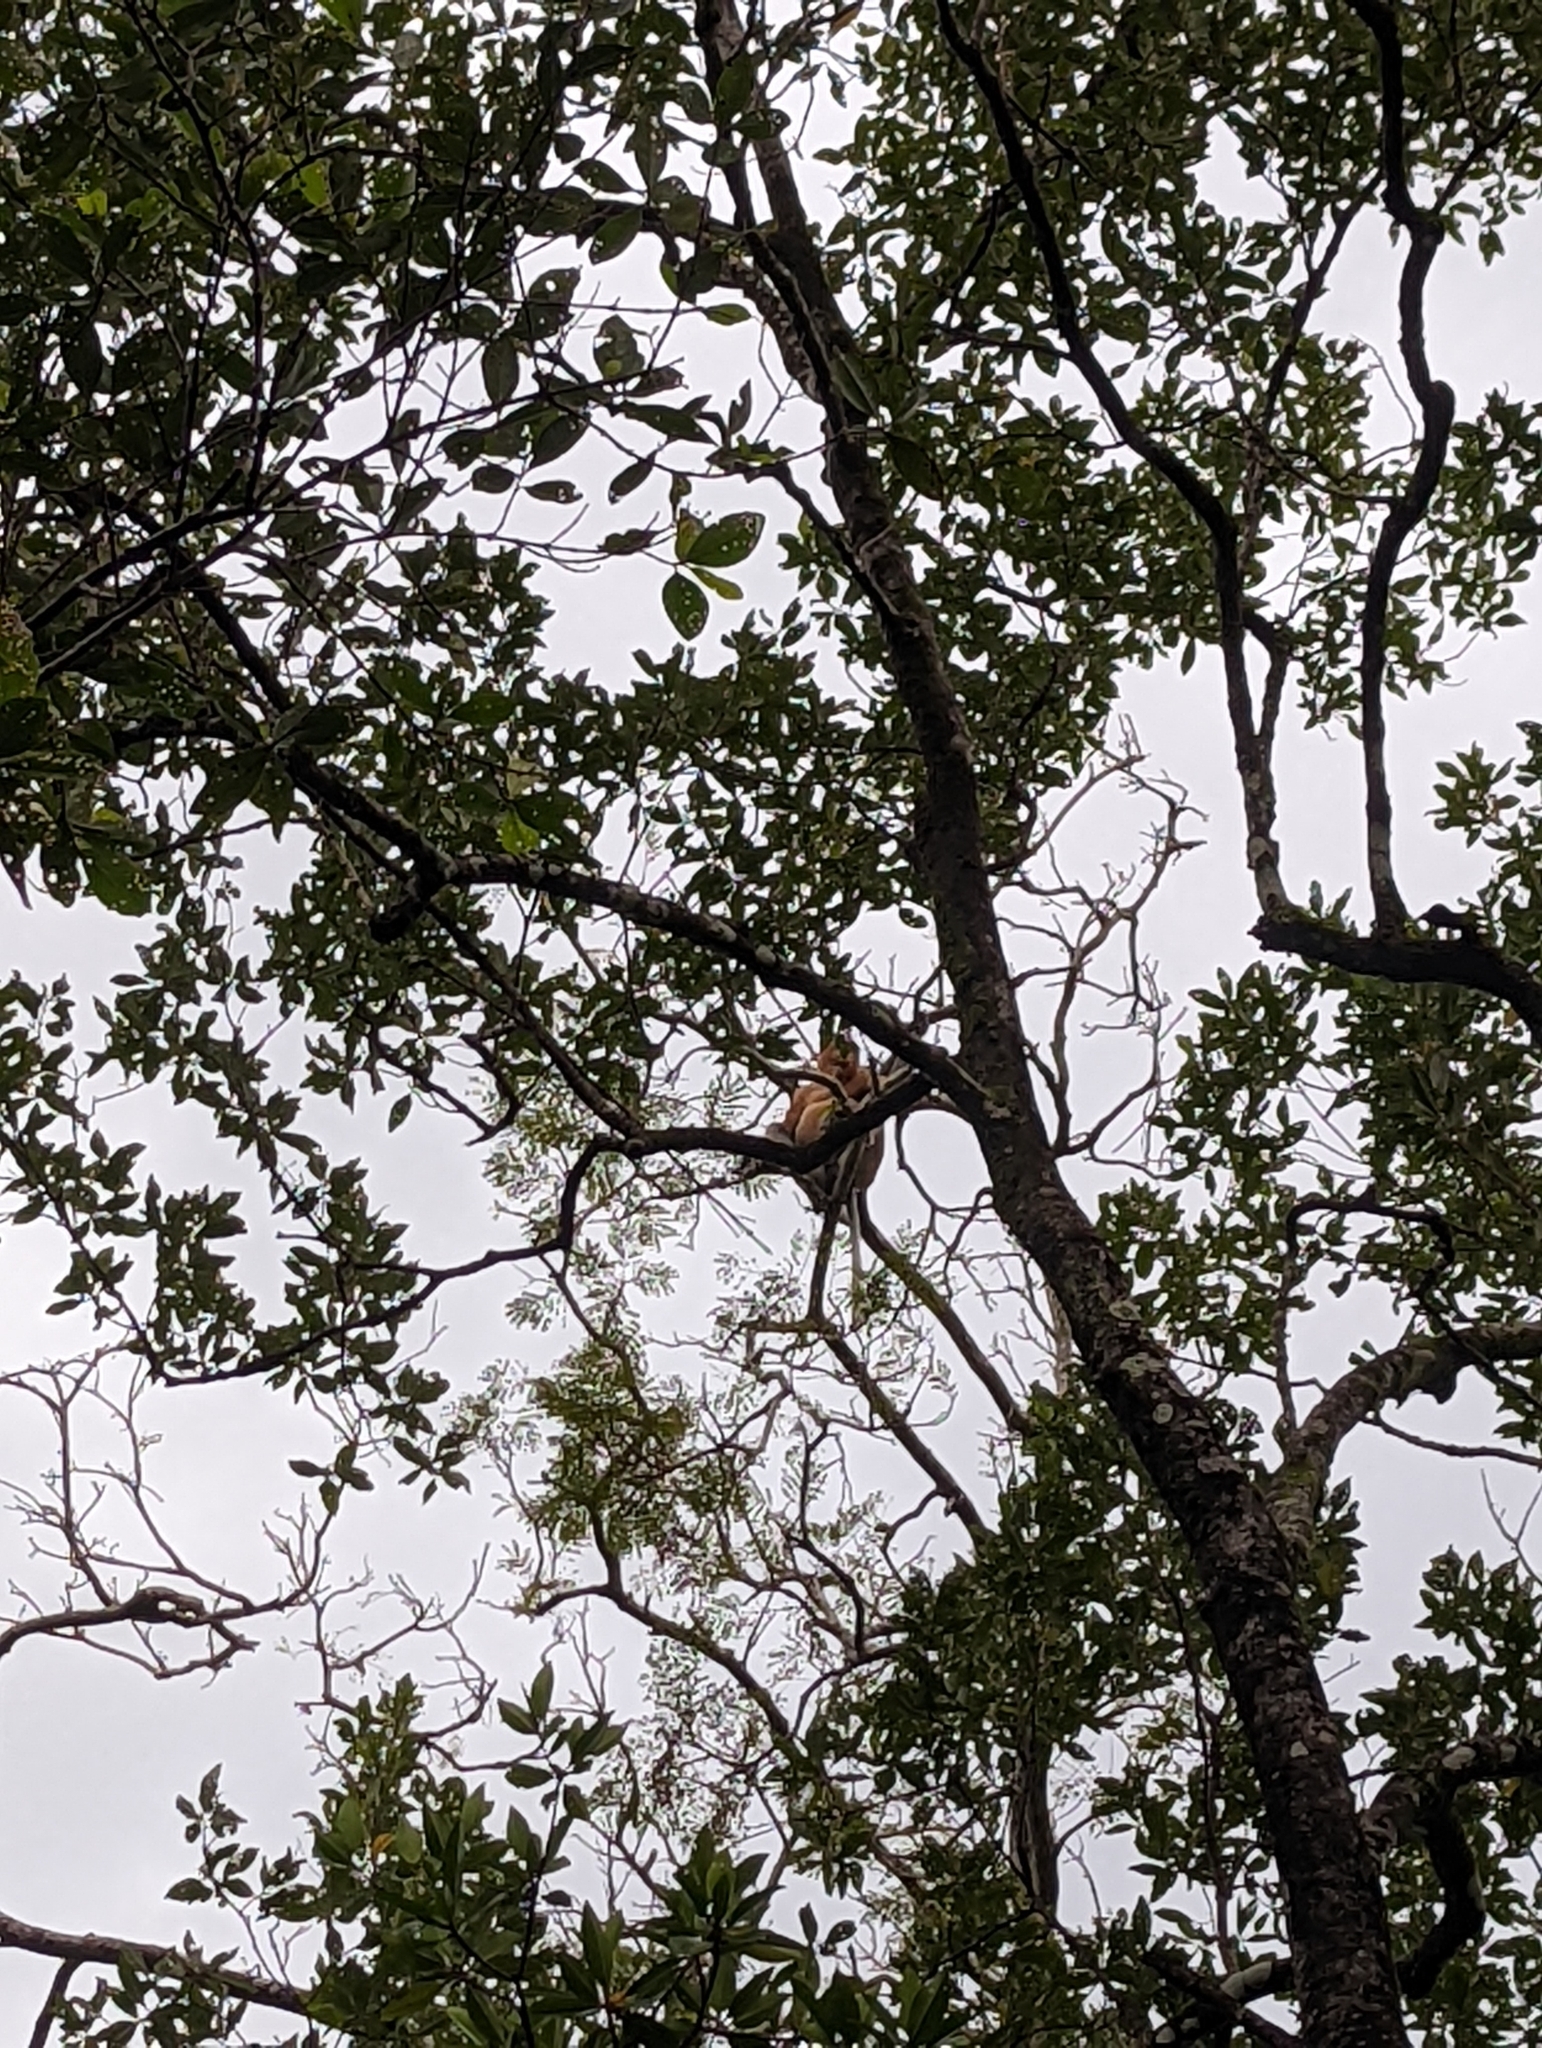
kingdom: Animalia
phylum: Chordata
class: Mammalia
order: Primates
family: Cercopithecidae
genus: Nasalis
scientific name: Nasalis larvatus
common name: Proboscis monkey
